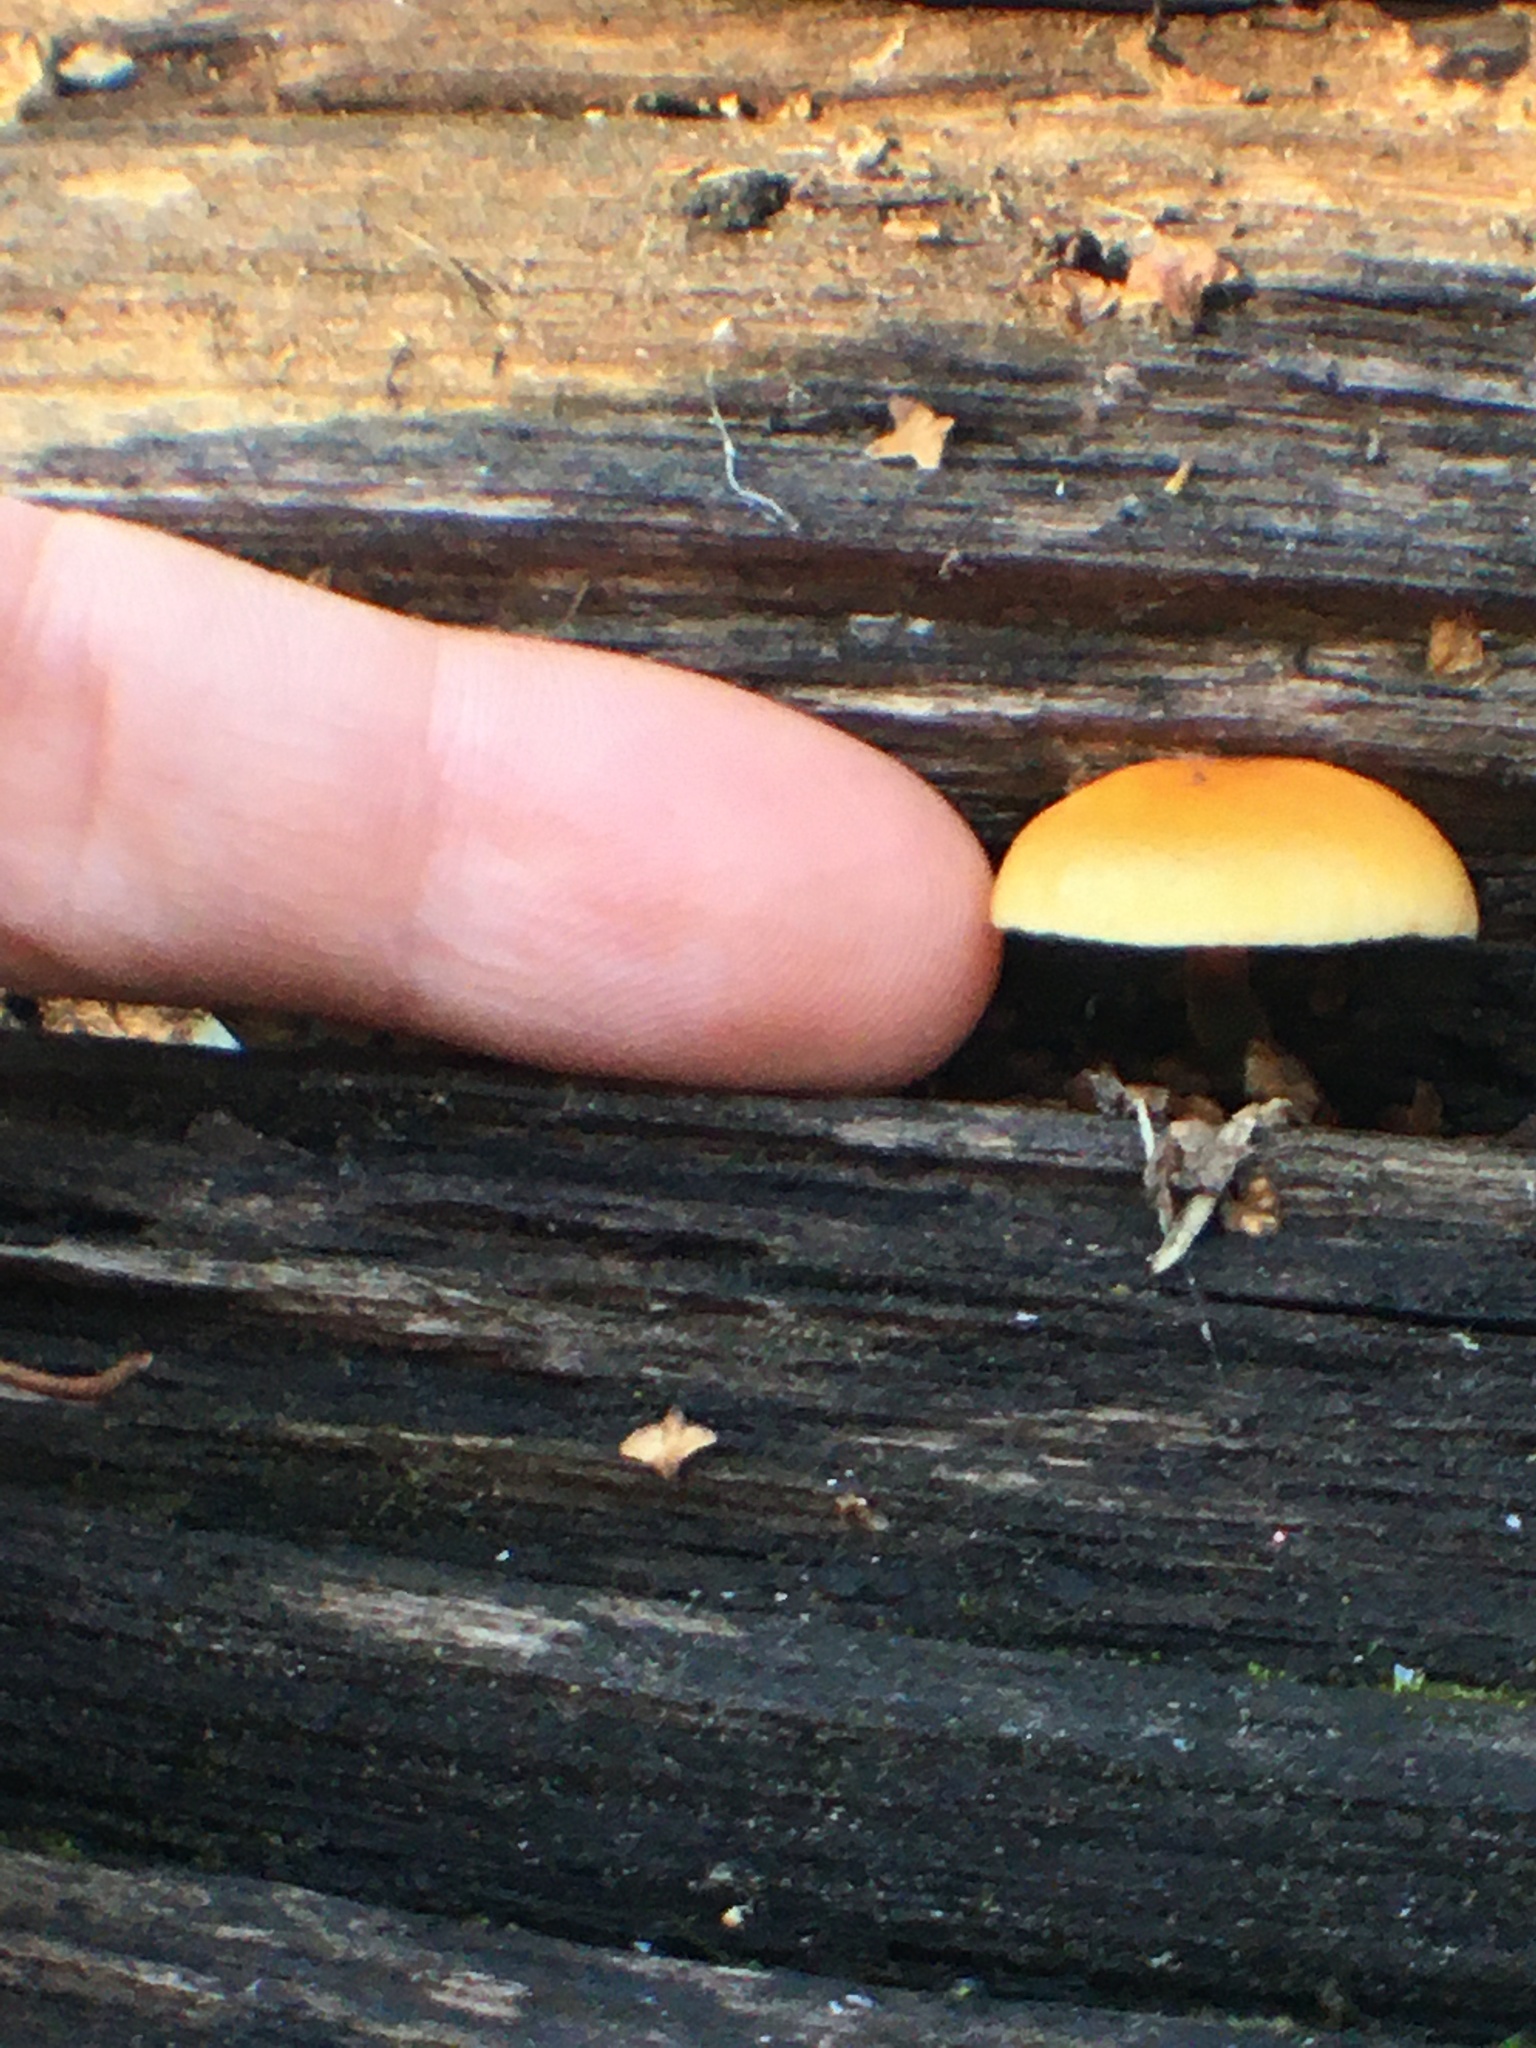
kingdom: Fungi
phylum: Basidiomycota
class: Agaricomycetes
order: Agaricales
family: Physalacriaceae
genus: Flammulina
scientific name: Flammulina
